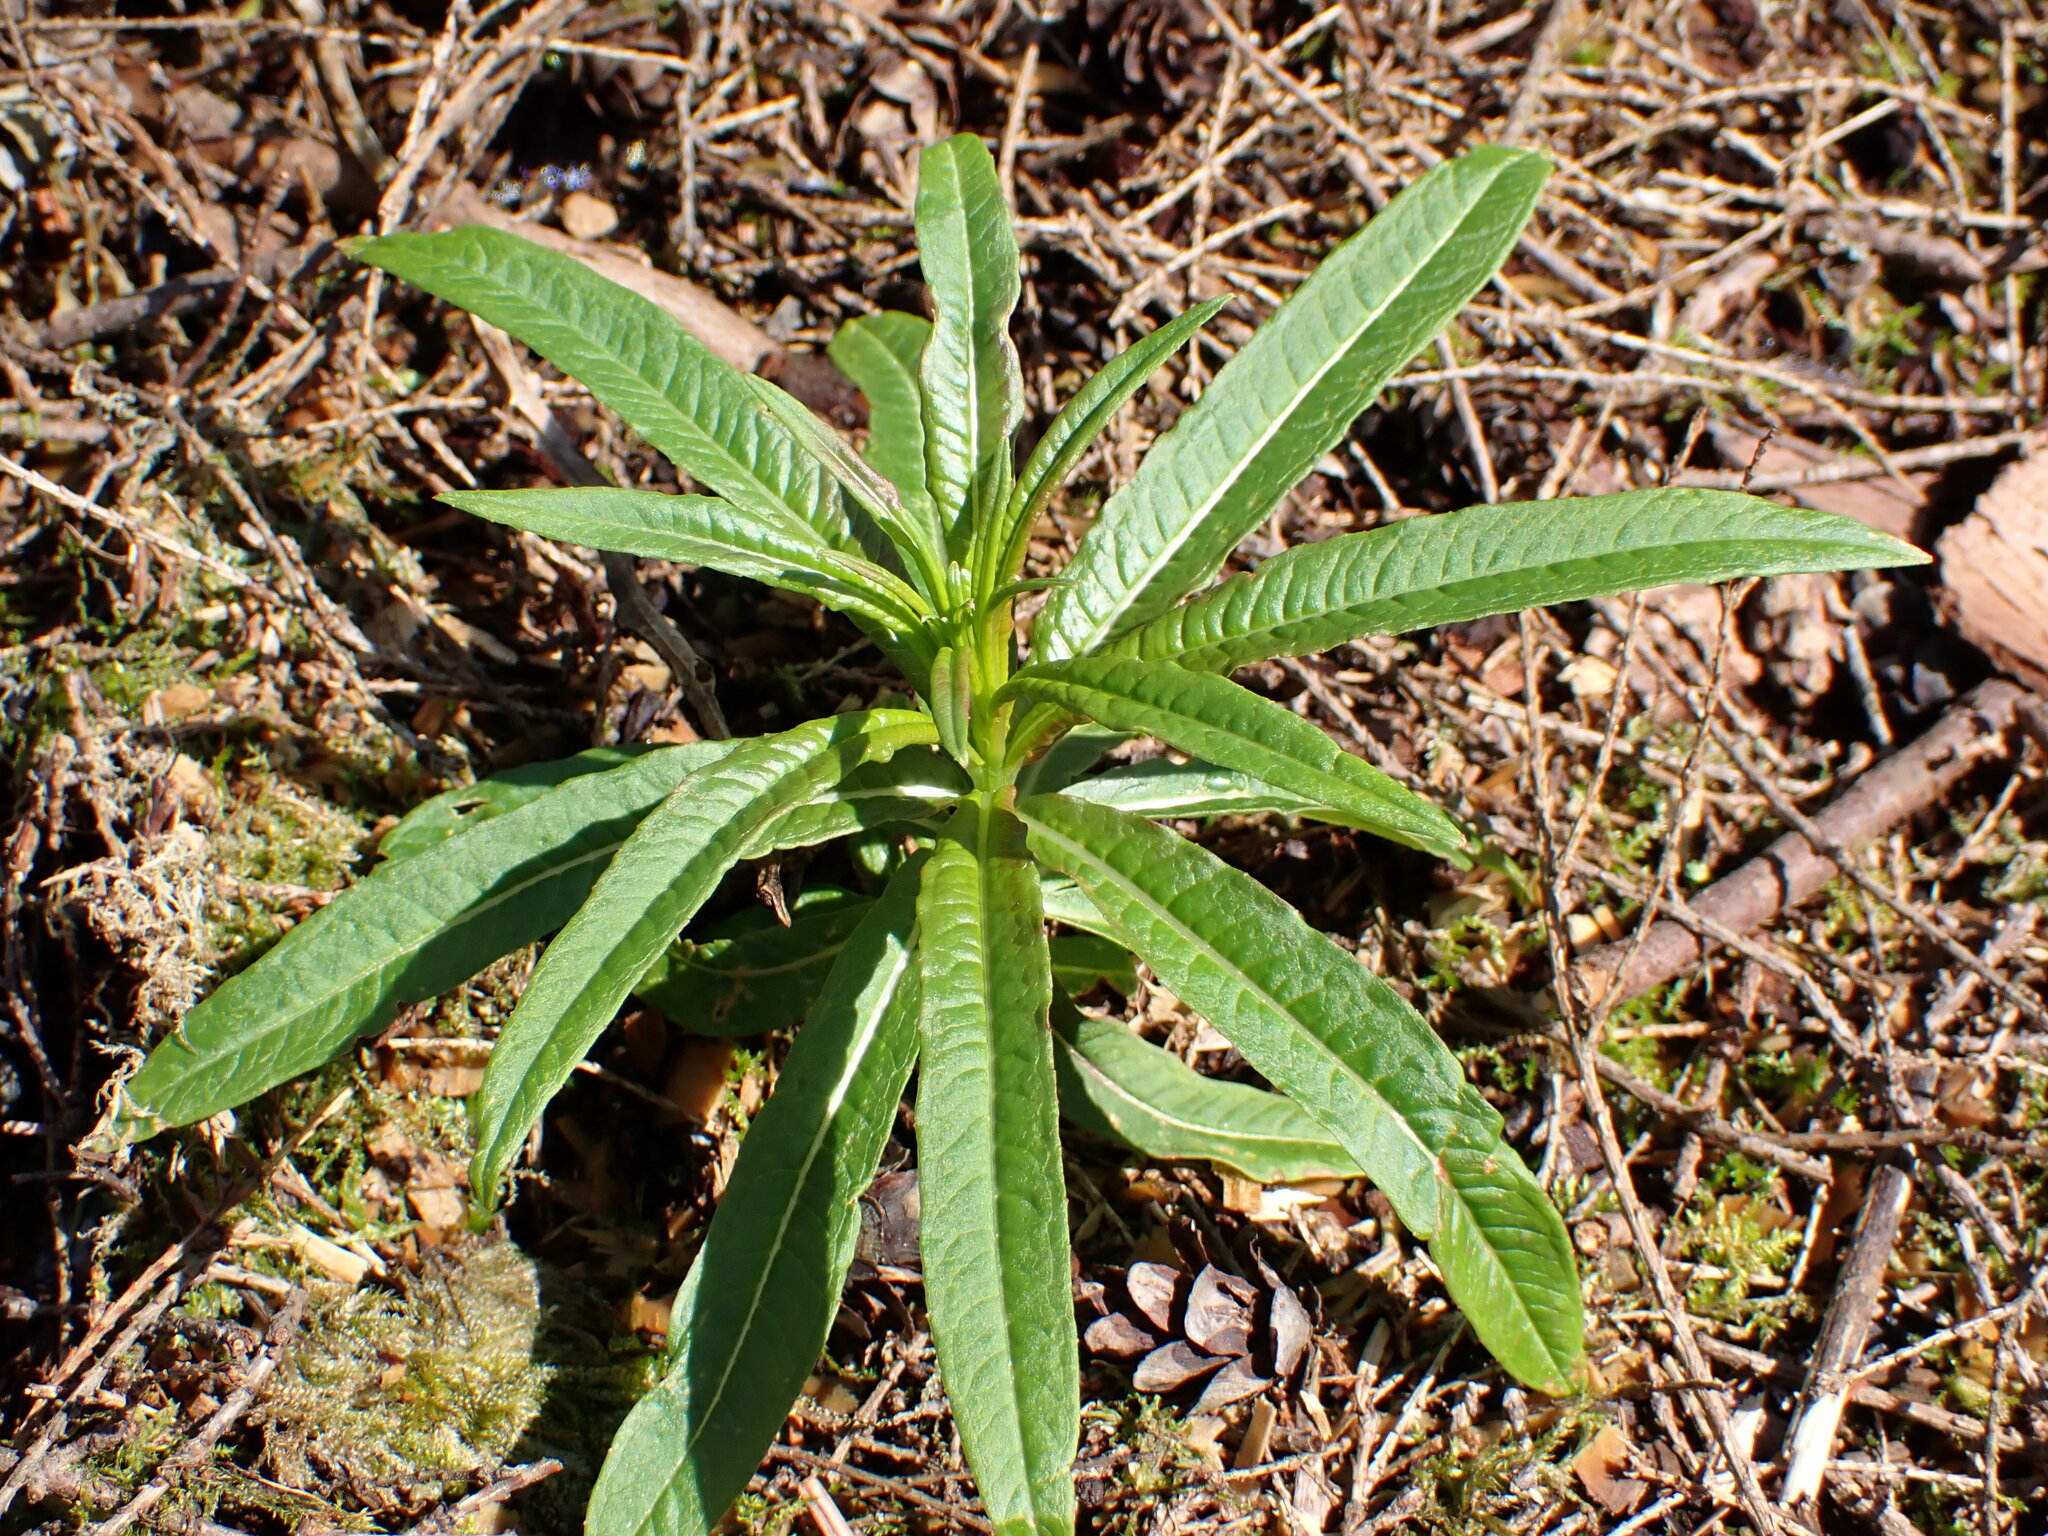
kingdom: Plantae
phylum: Tracheophyta
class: Magnoliopsida
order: Myrtales
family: Onagraceae
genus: Chamaenerion
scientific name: Chamaenerion angustifolium
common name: Fireweed
